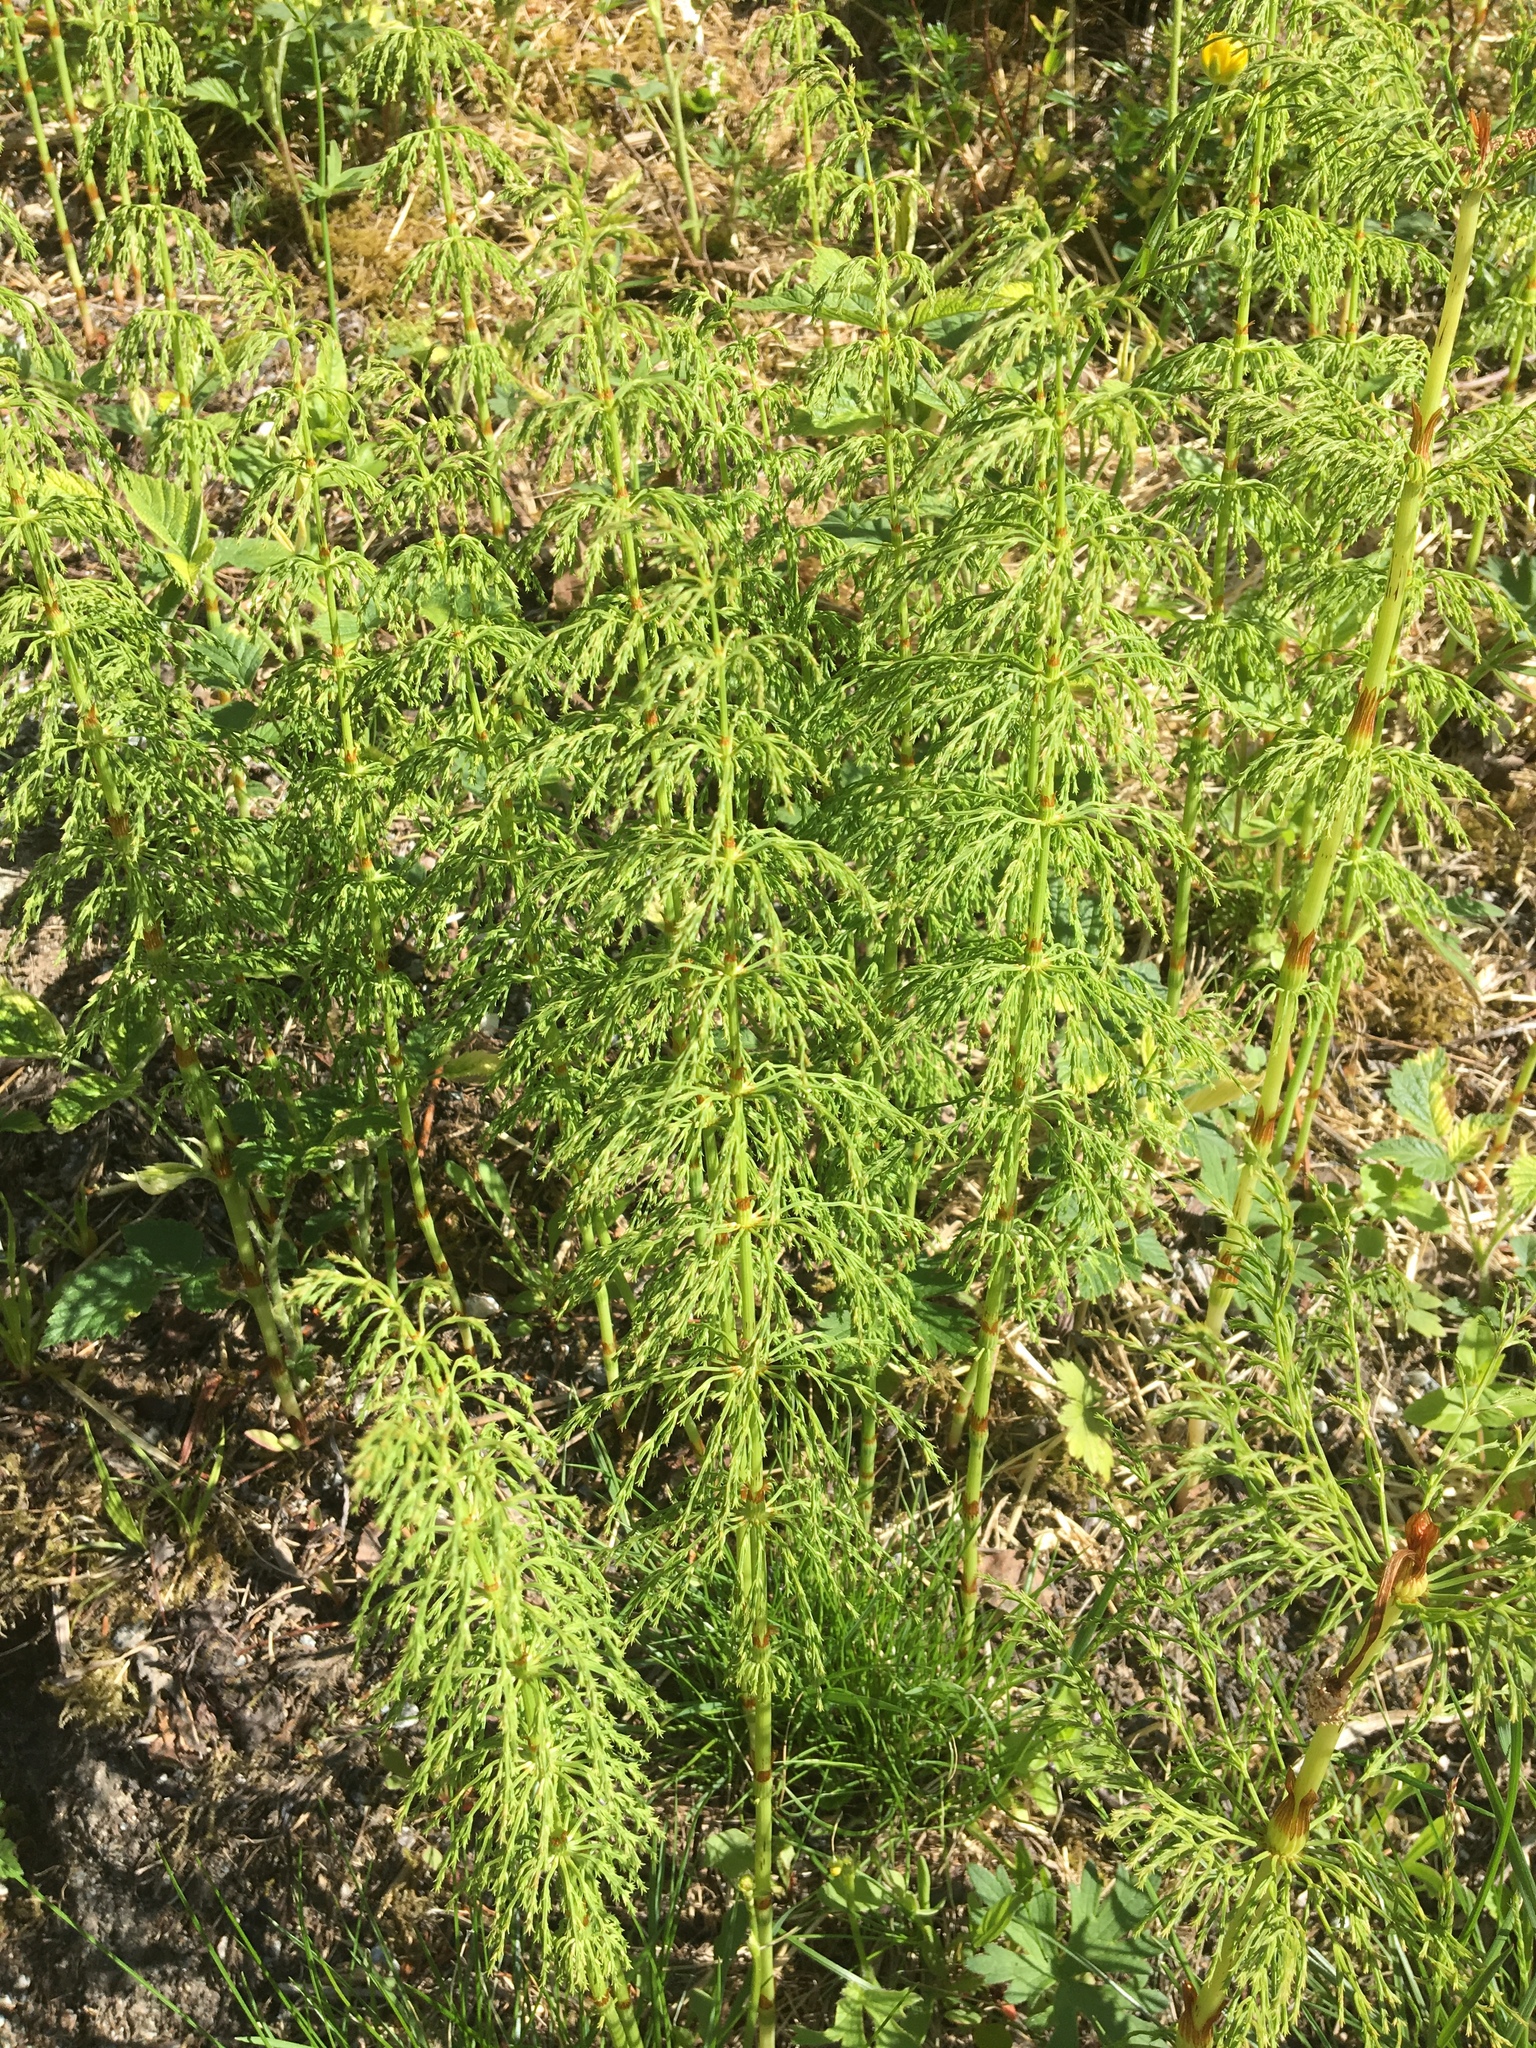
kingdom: Plantae
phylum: Tracheophyta
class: Polypodiopsida
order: Equisetales
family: Equisetaceae
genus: Equisetum
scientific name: Equisetum sylvaticum
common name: Wood horsetail
